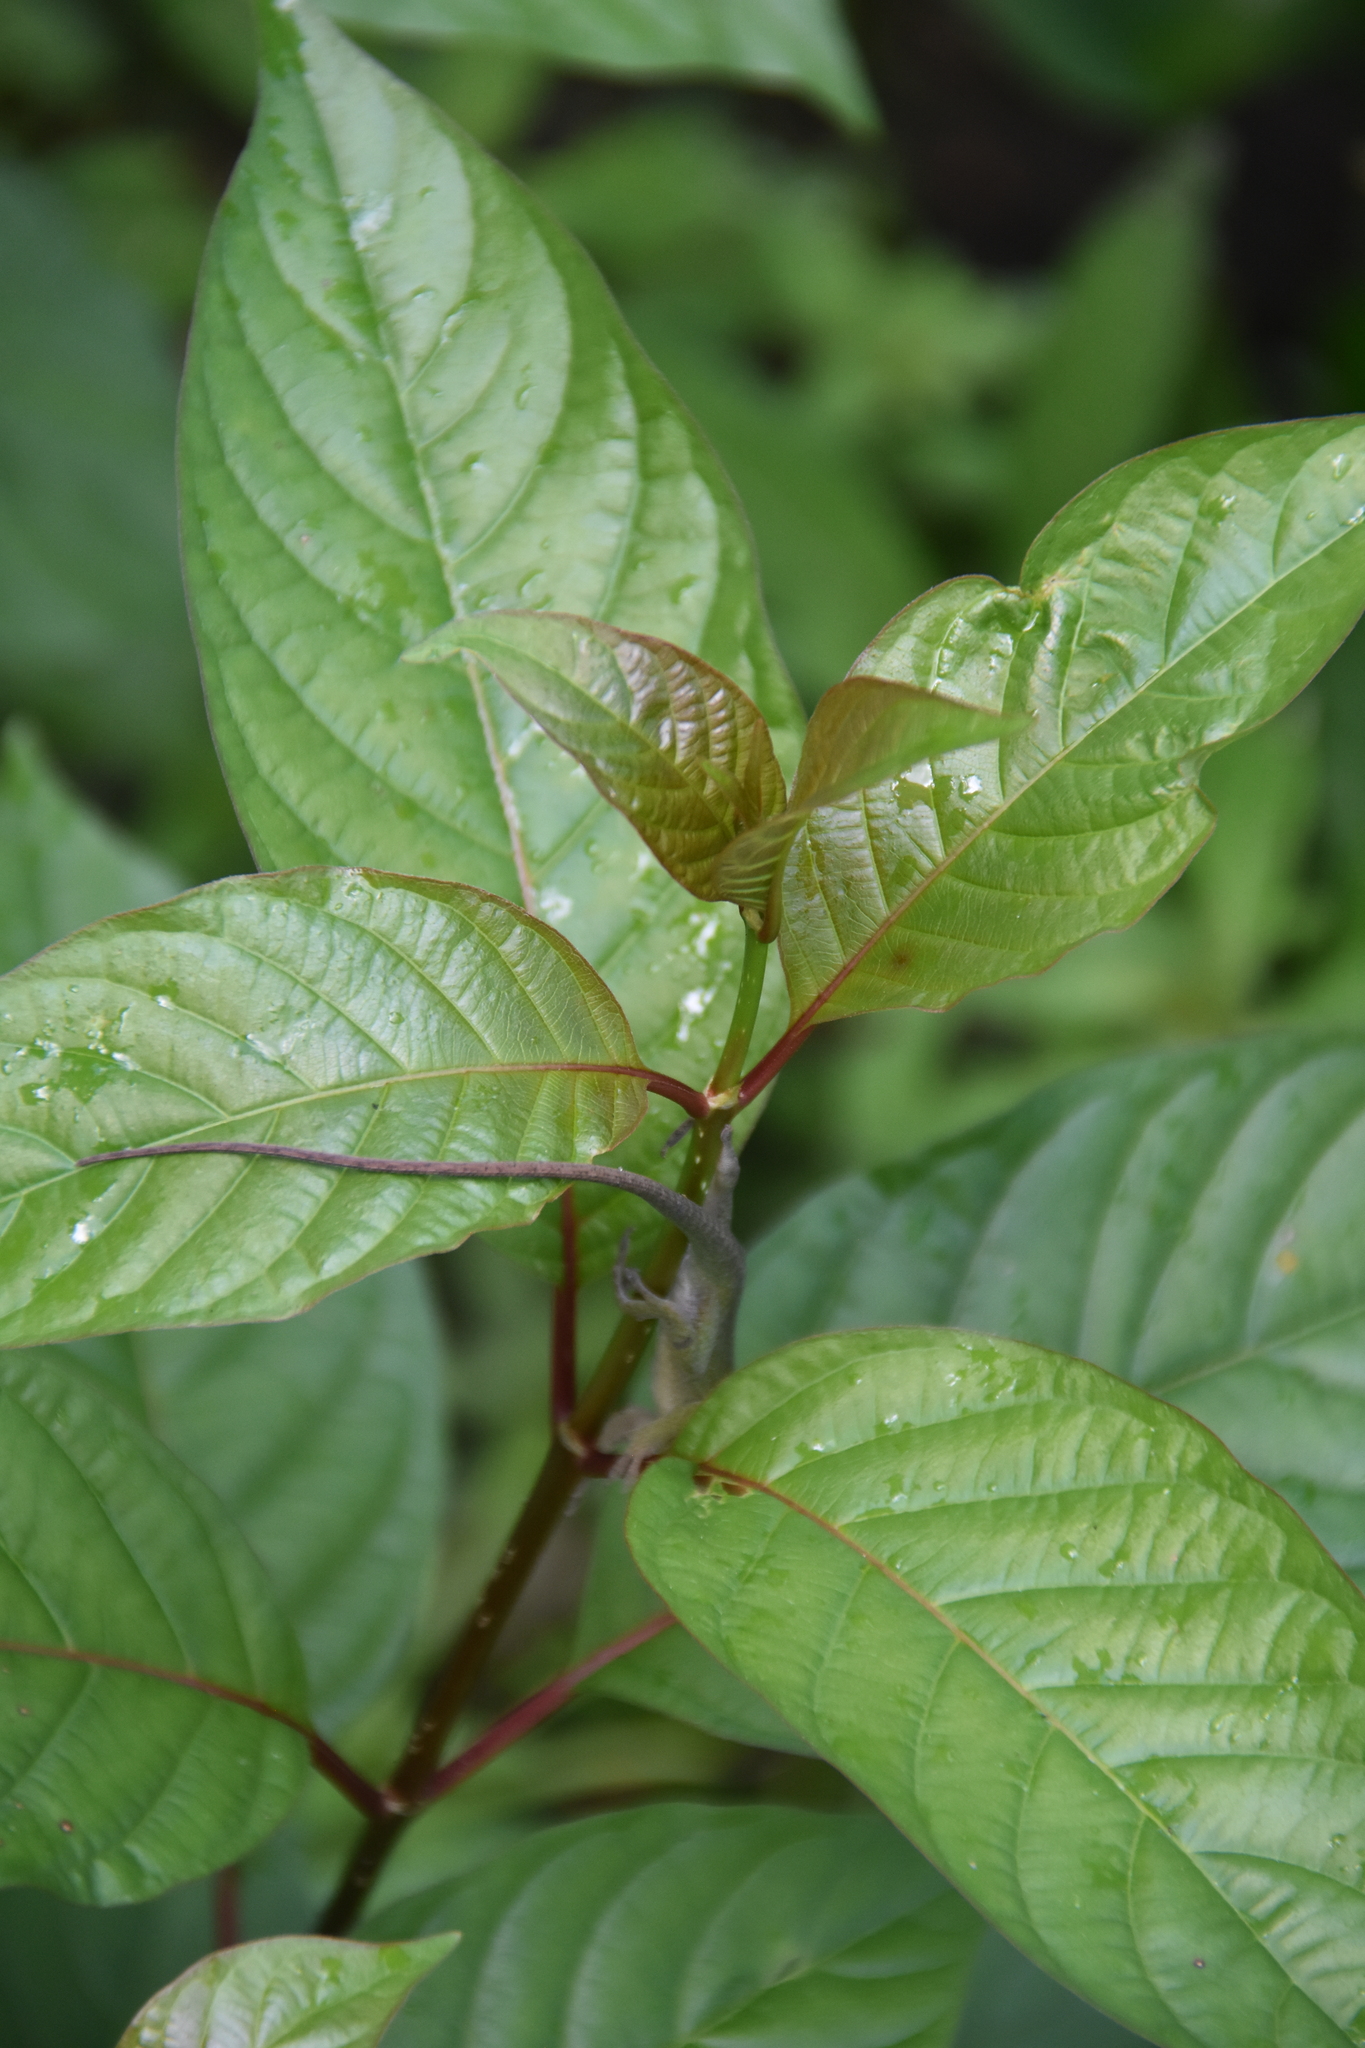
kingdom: Plantae
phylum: Tracheophyta
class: Magnoliopsida
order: Gentianales
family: Rubiaceae
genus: Cephalanthus
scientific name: Cephalanthus occidentalis
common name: Button-willow
